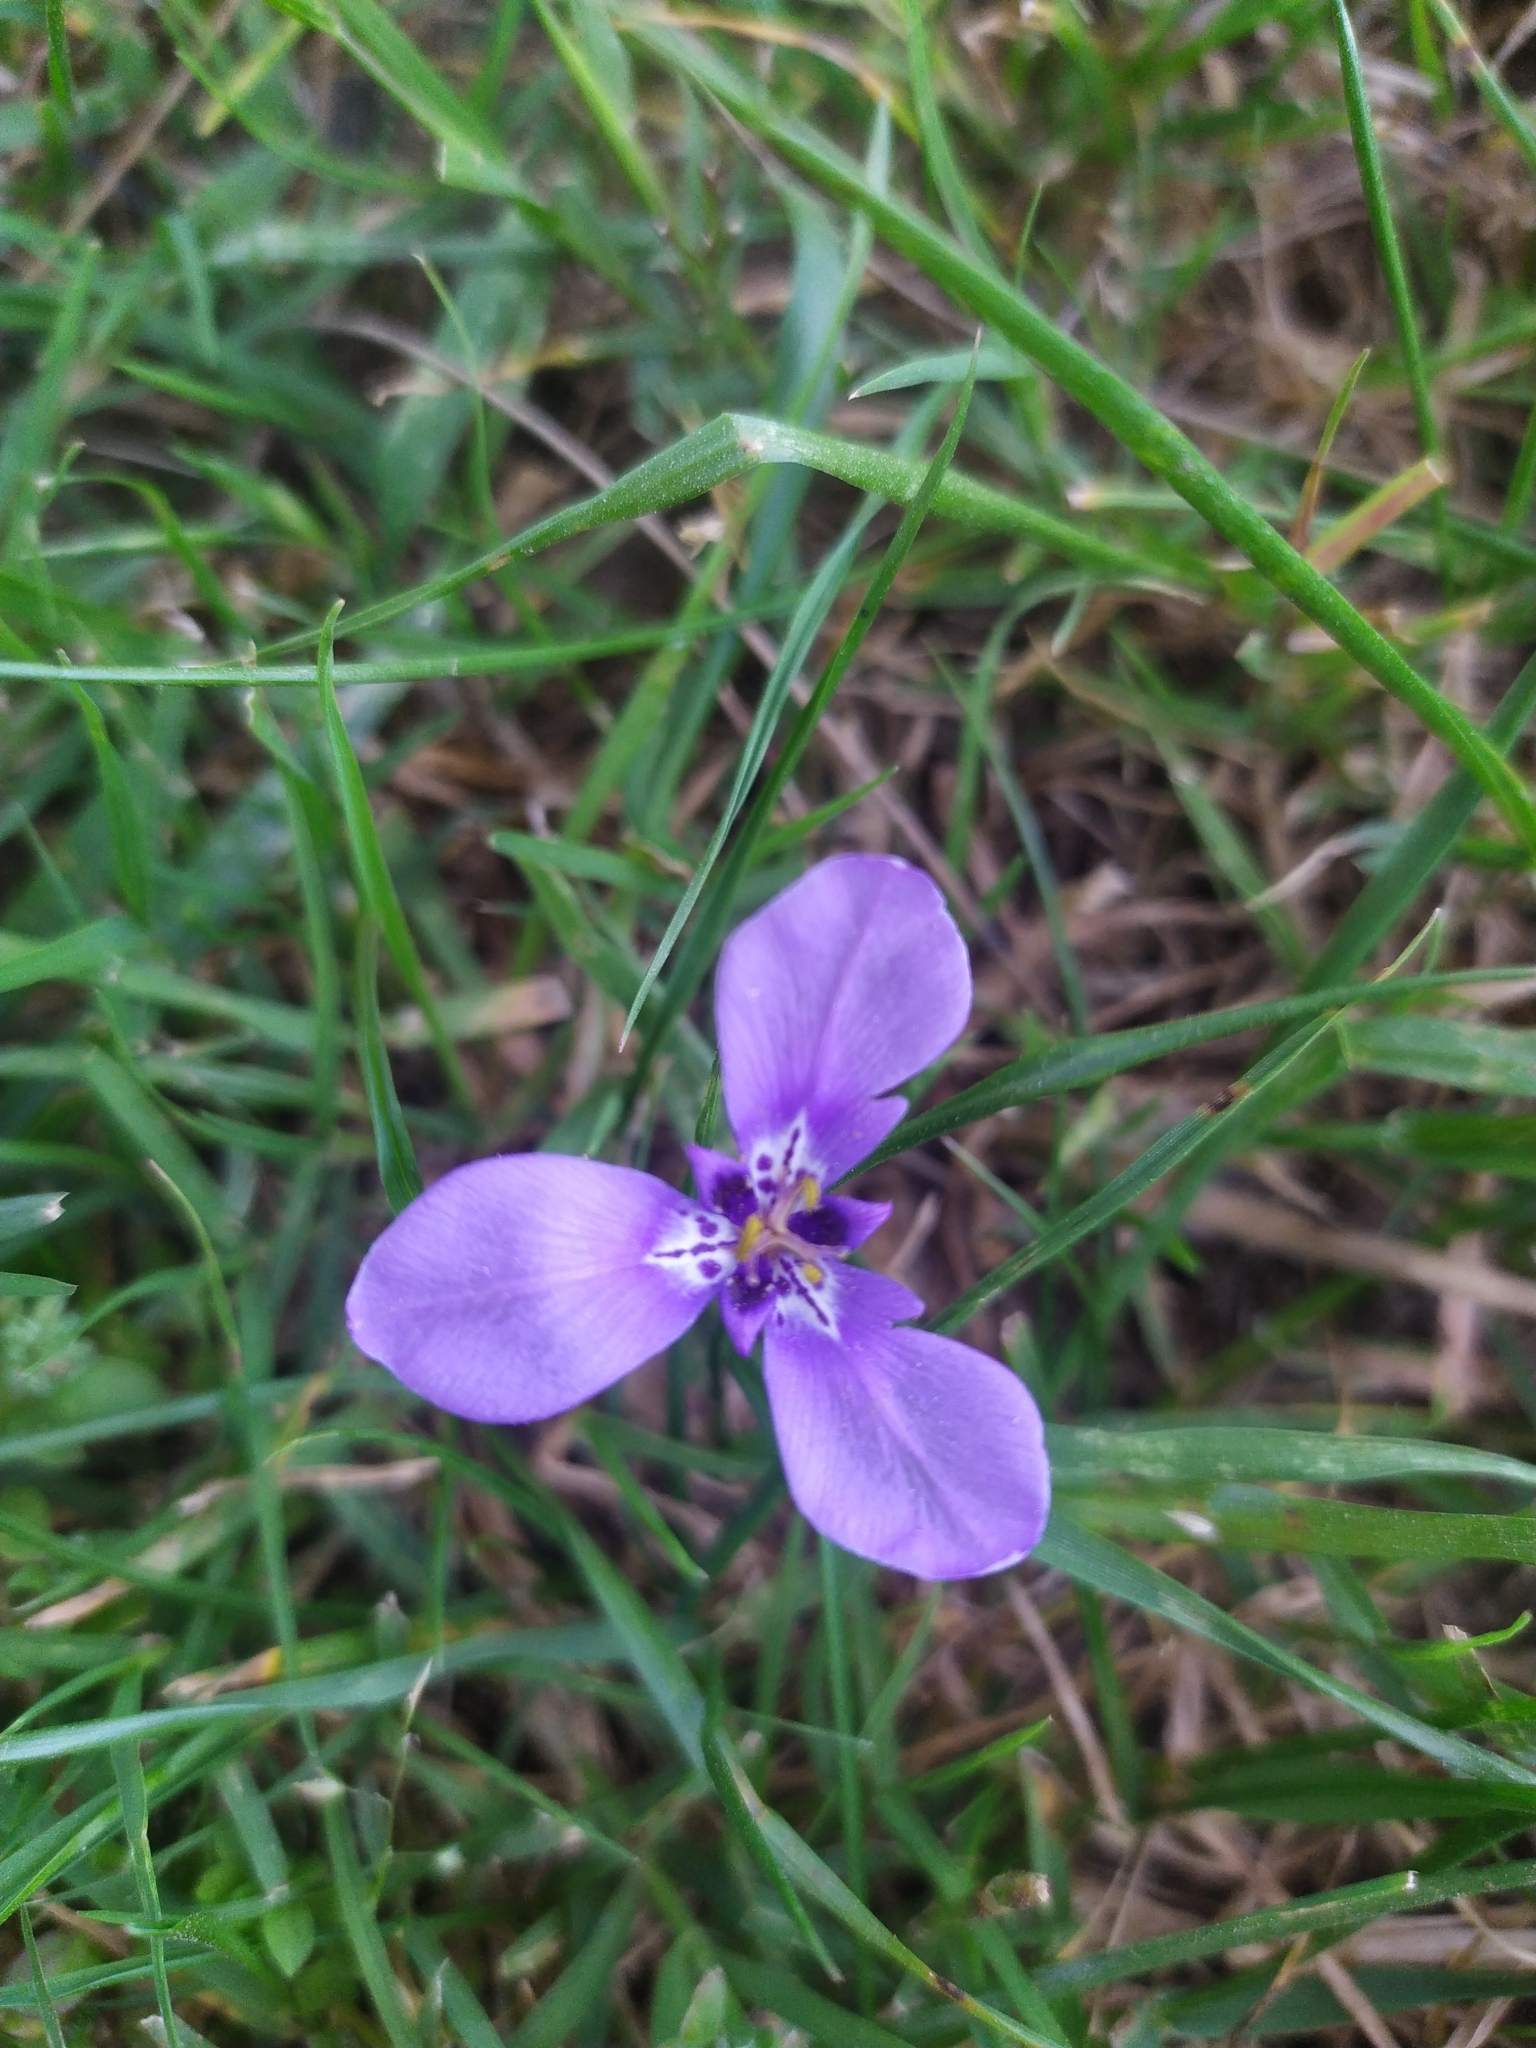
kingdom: Plantae
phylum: Tracheophyta
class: Liliopsida
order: Asparagales
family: Iridaceae
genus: Herbertia
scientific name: Herbertia lahue
